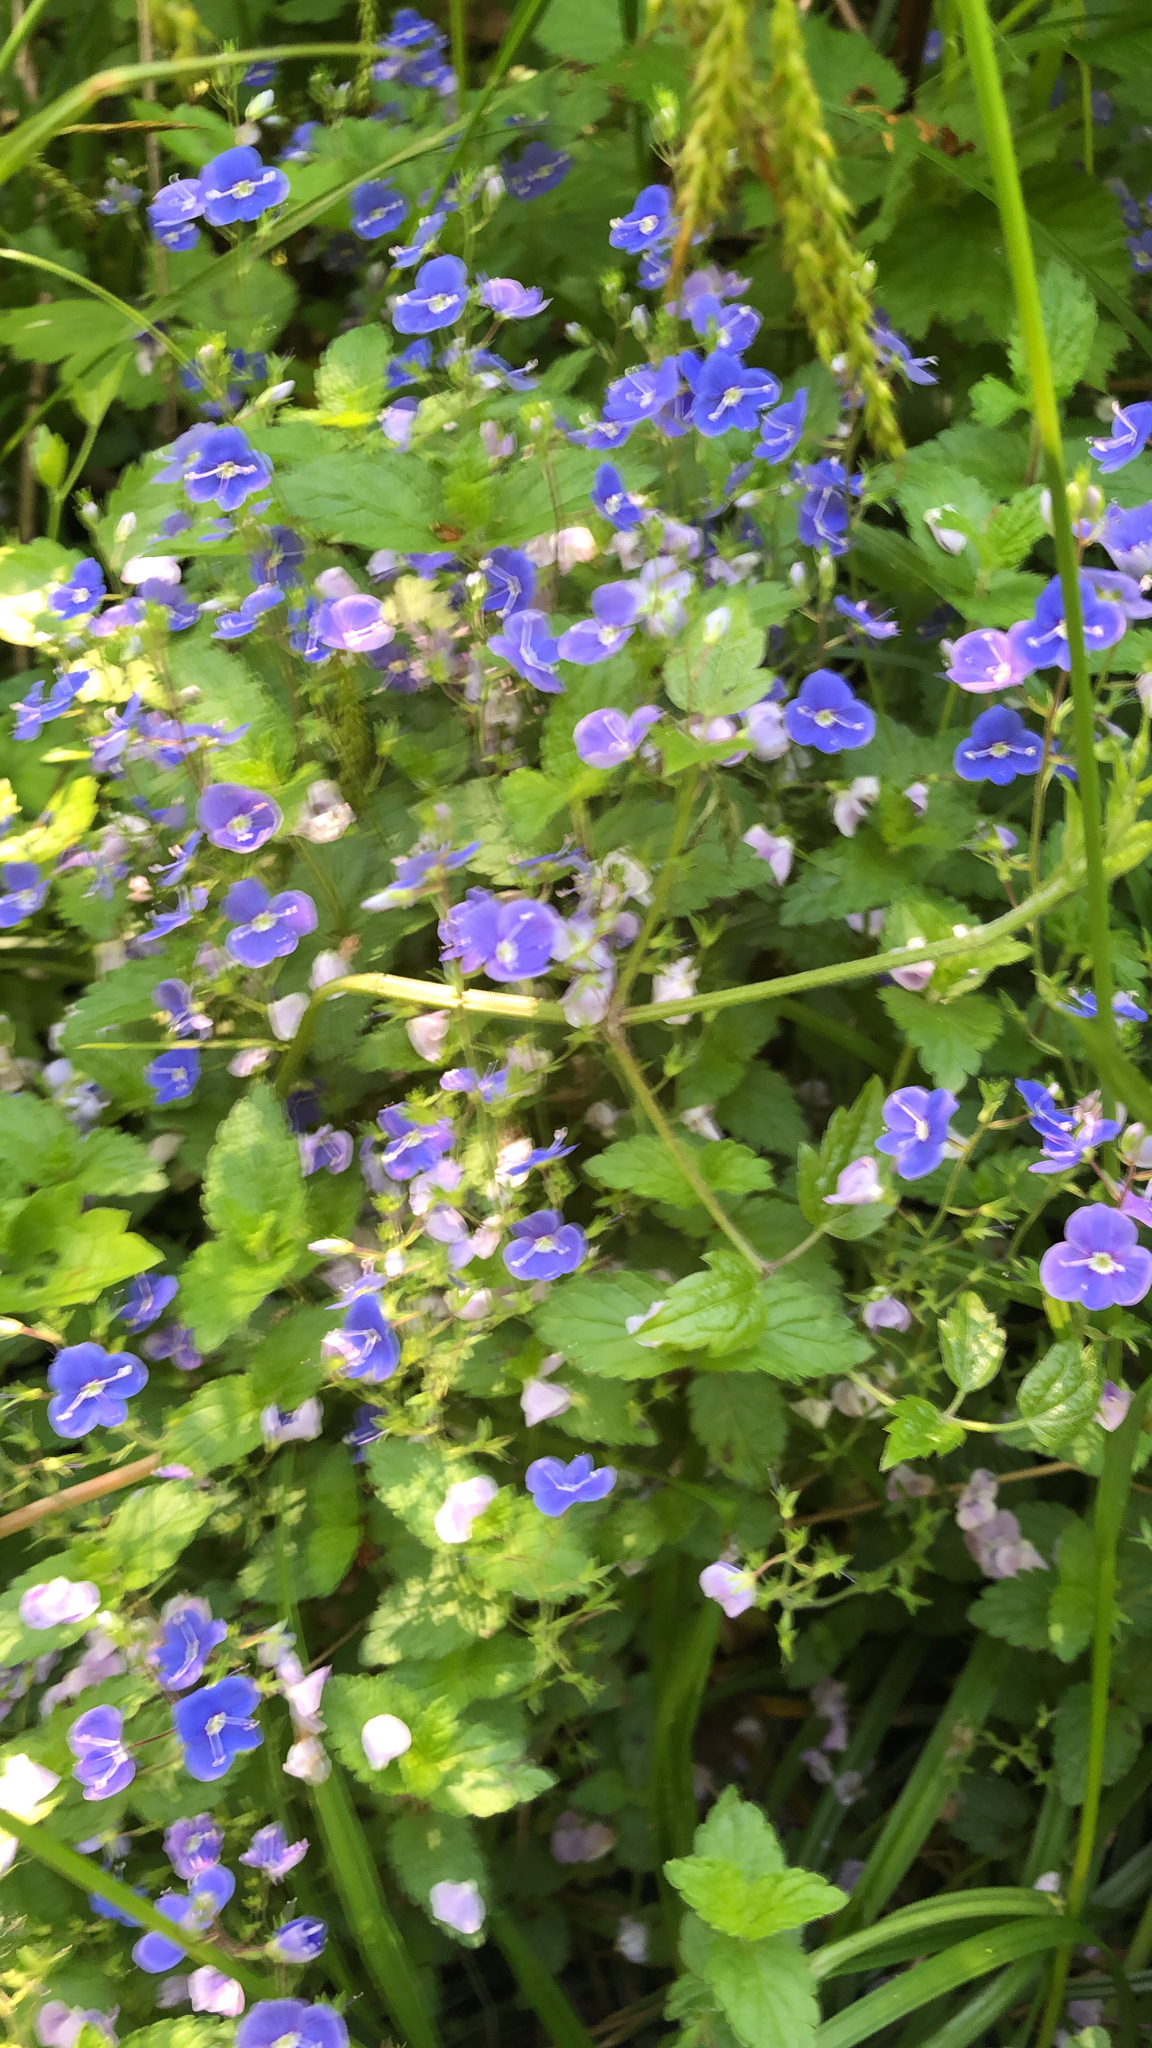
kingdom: Plantae
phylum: Tracheophyta
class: Magnoliopsida
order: Lamiales
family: Plantaginaceae
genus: Veronica
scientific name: Veronica chamaedrys
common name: Germander speedwell
